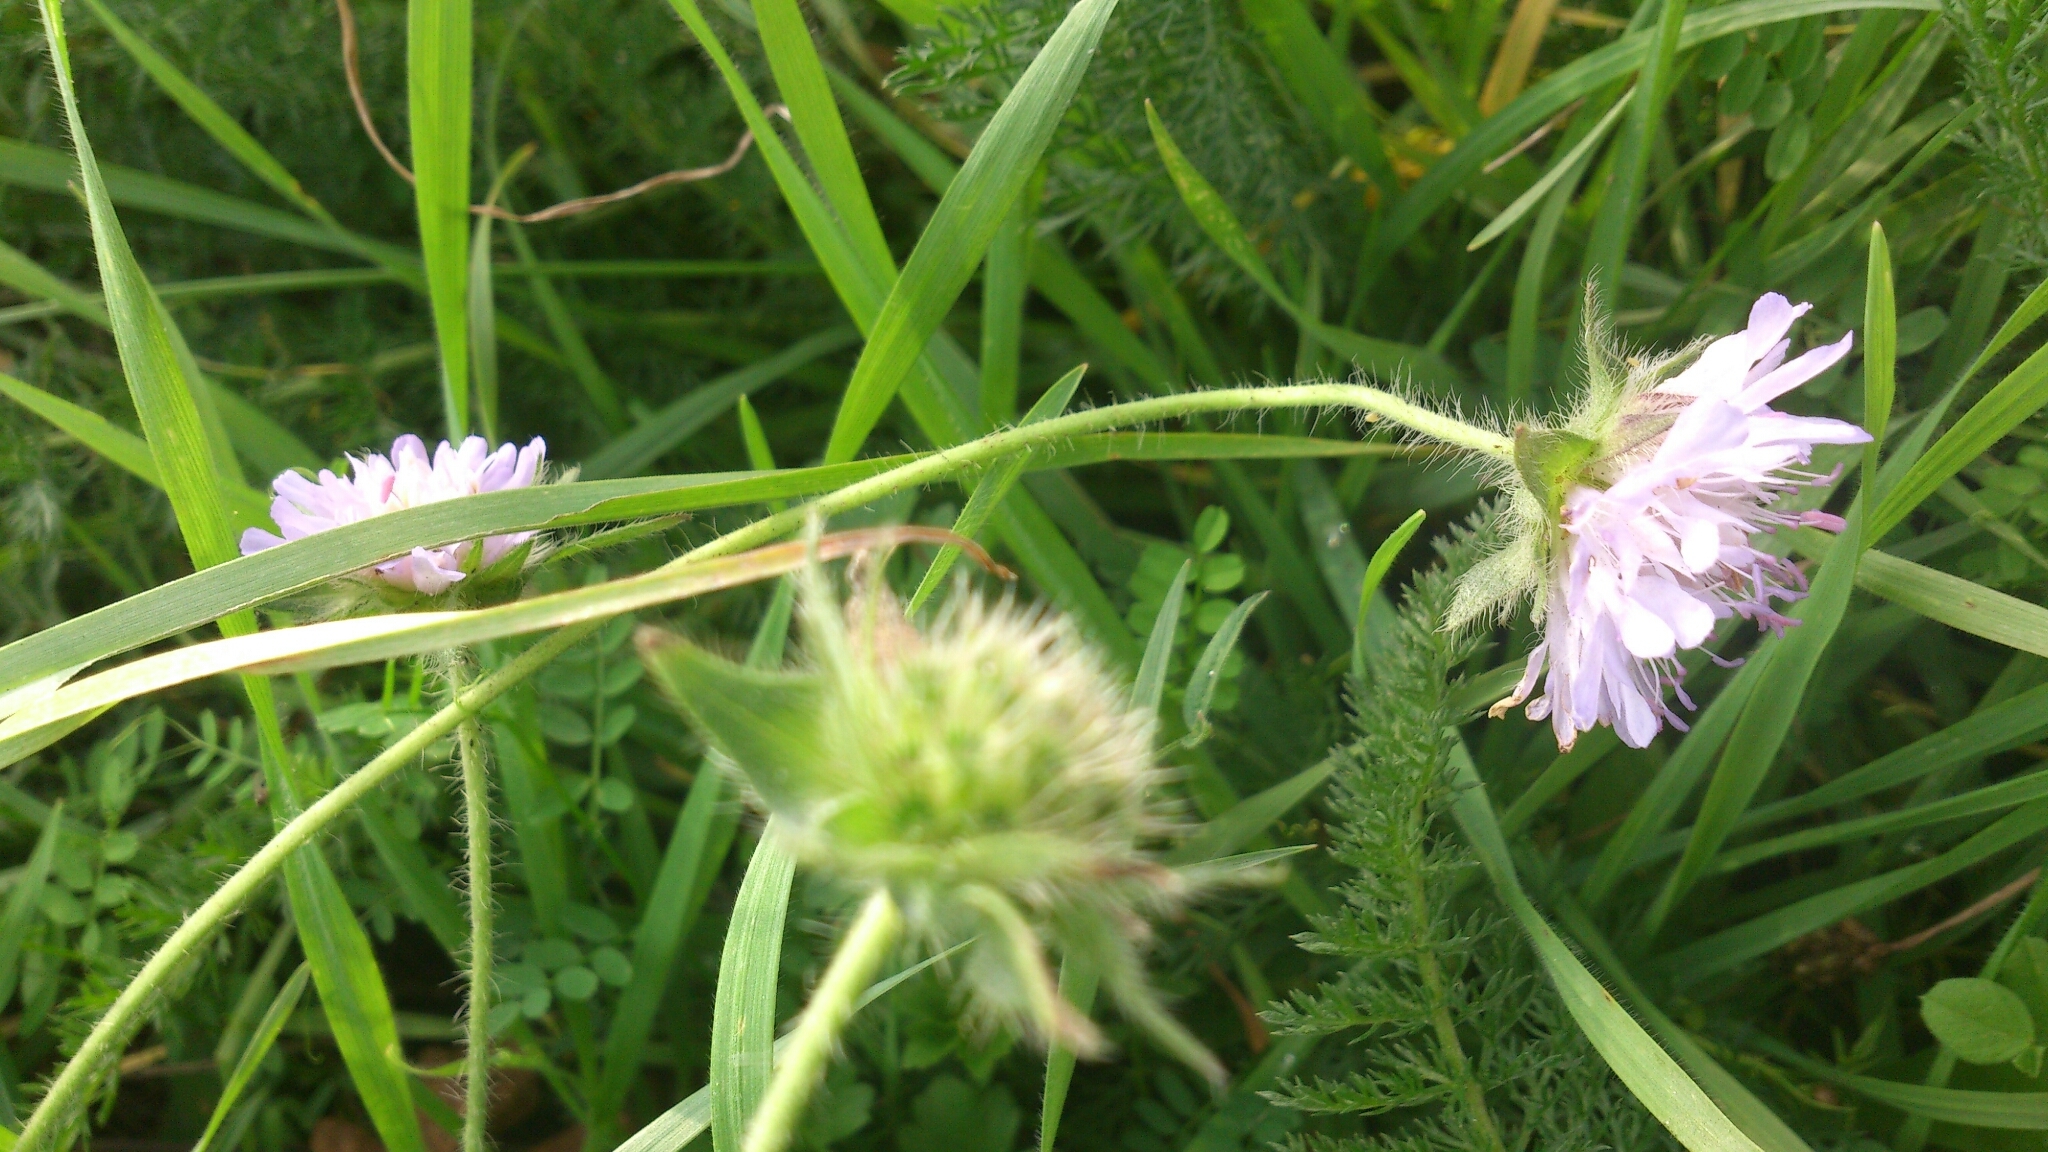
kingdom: Plantae
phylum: Tracheophyta
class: Magnoliopsida
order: Dipsacales
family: Caprifoliaceae
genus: Knautia
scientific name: Knautia arvensis
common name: Field scabiosa
